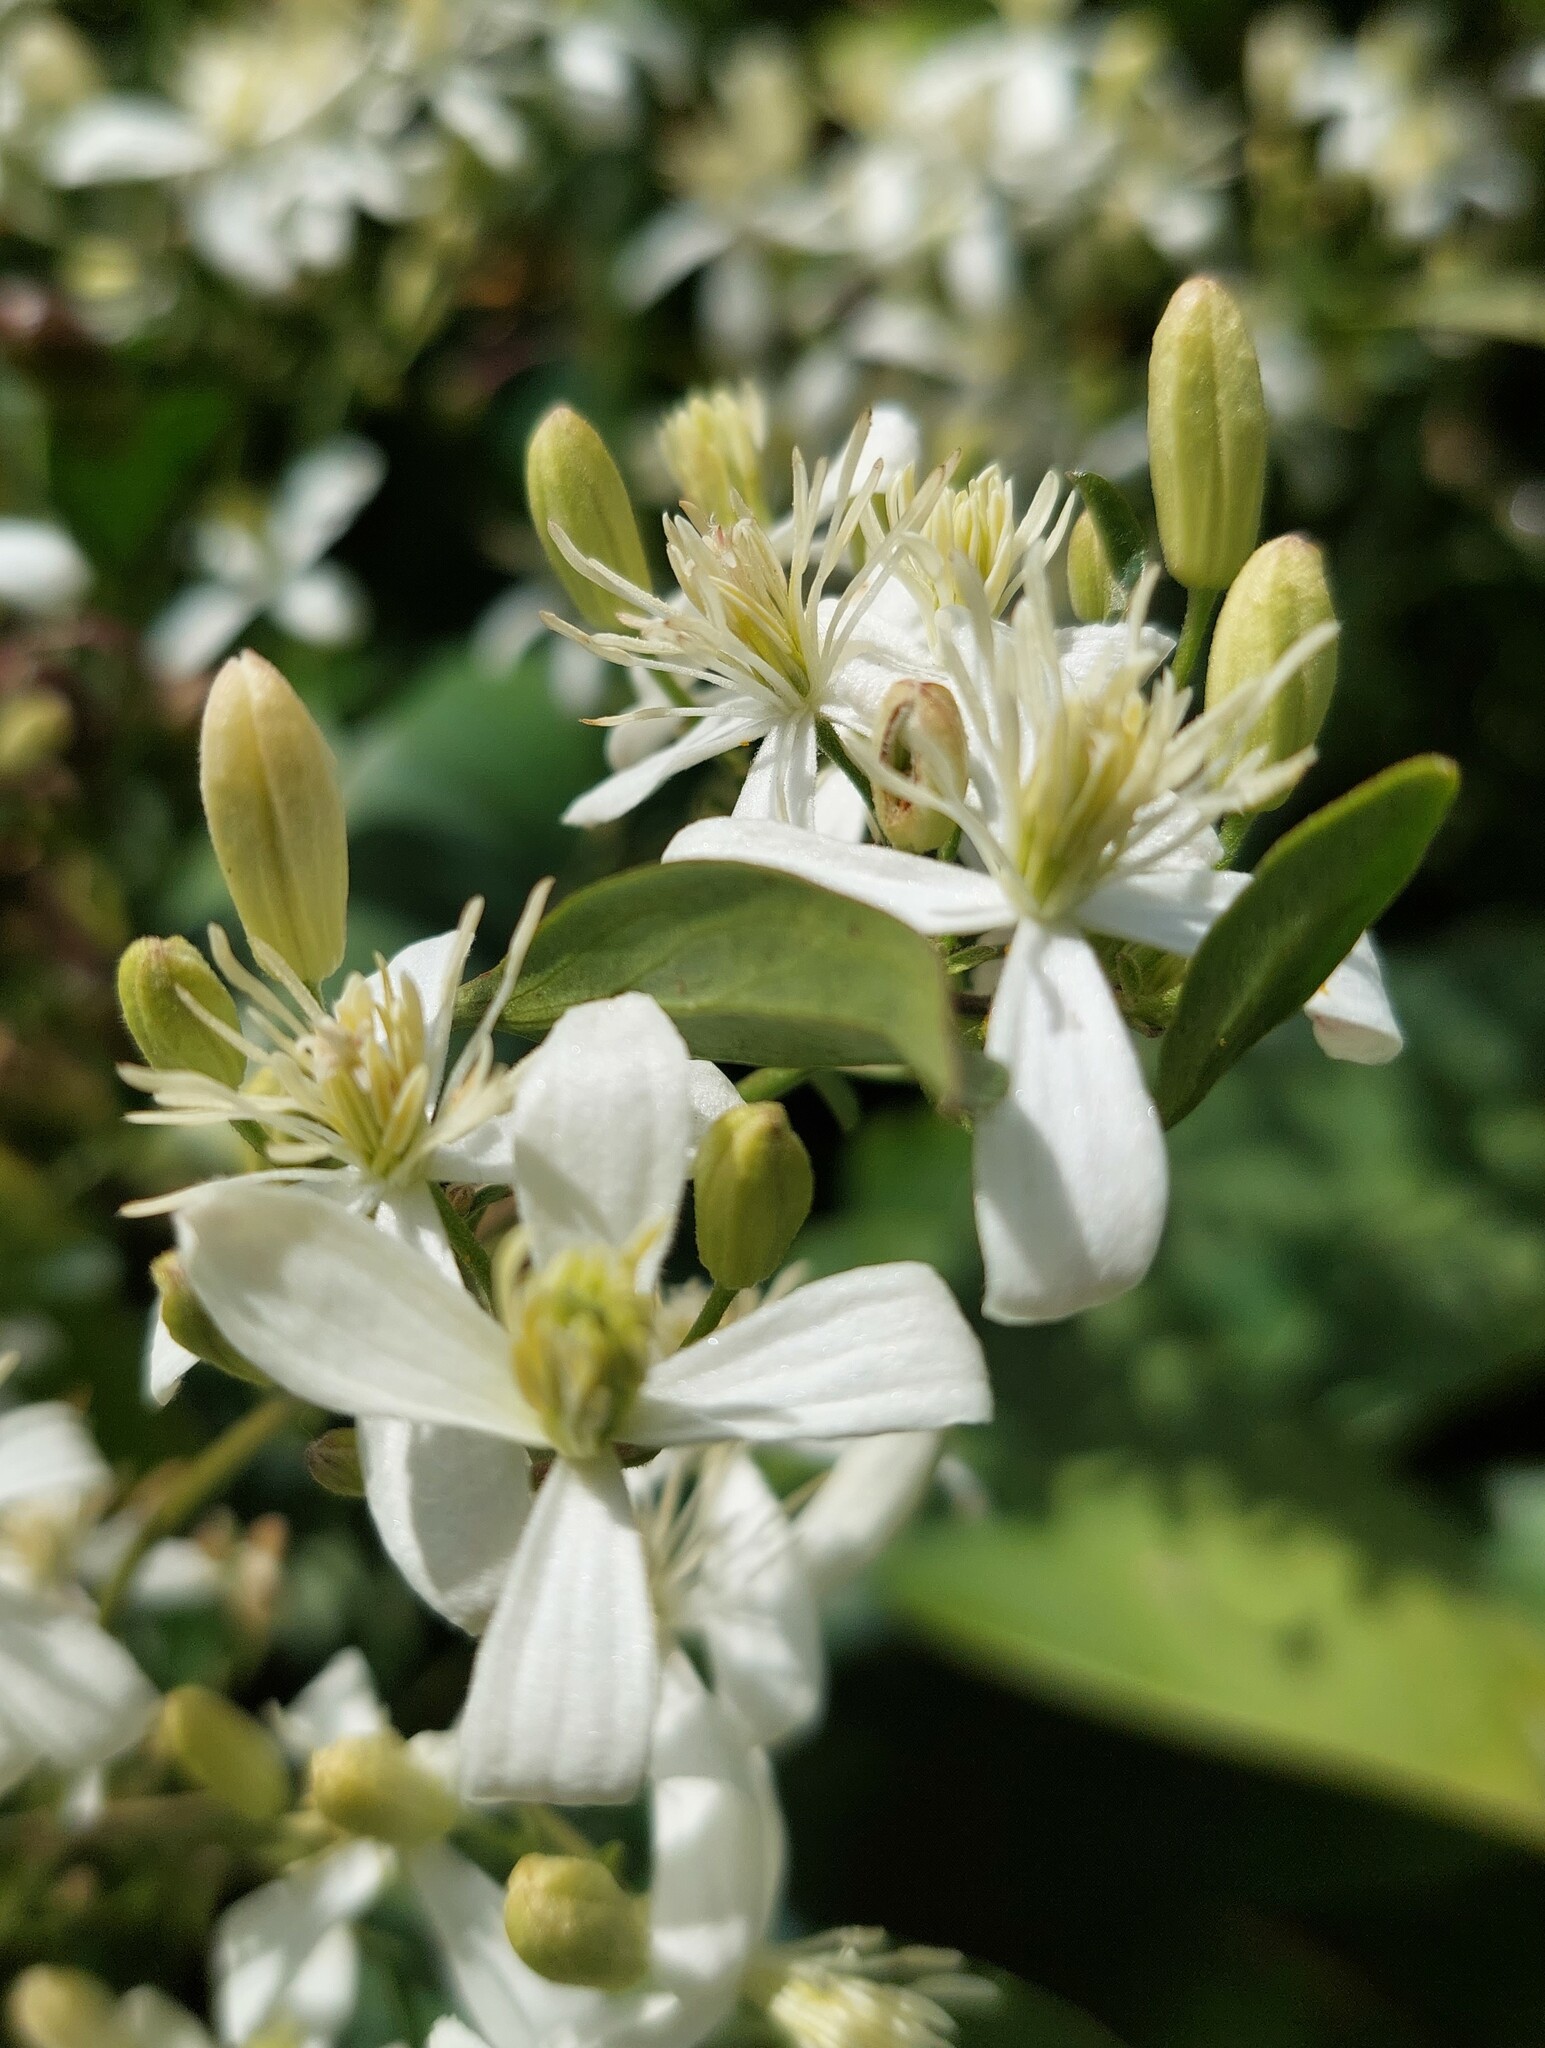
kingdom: Plantae
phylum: Tracheophyta
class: Magnoliopsida
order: Ranunculales
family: Ranunculaceae
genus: Clematis
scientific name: Clematis terniflora
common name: Sweet autumn clematis
